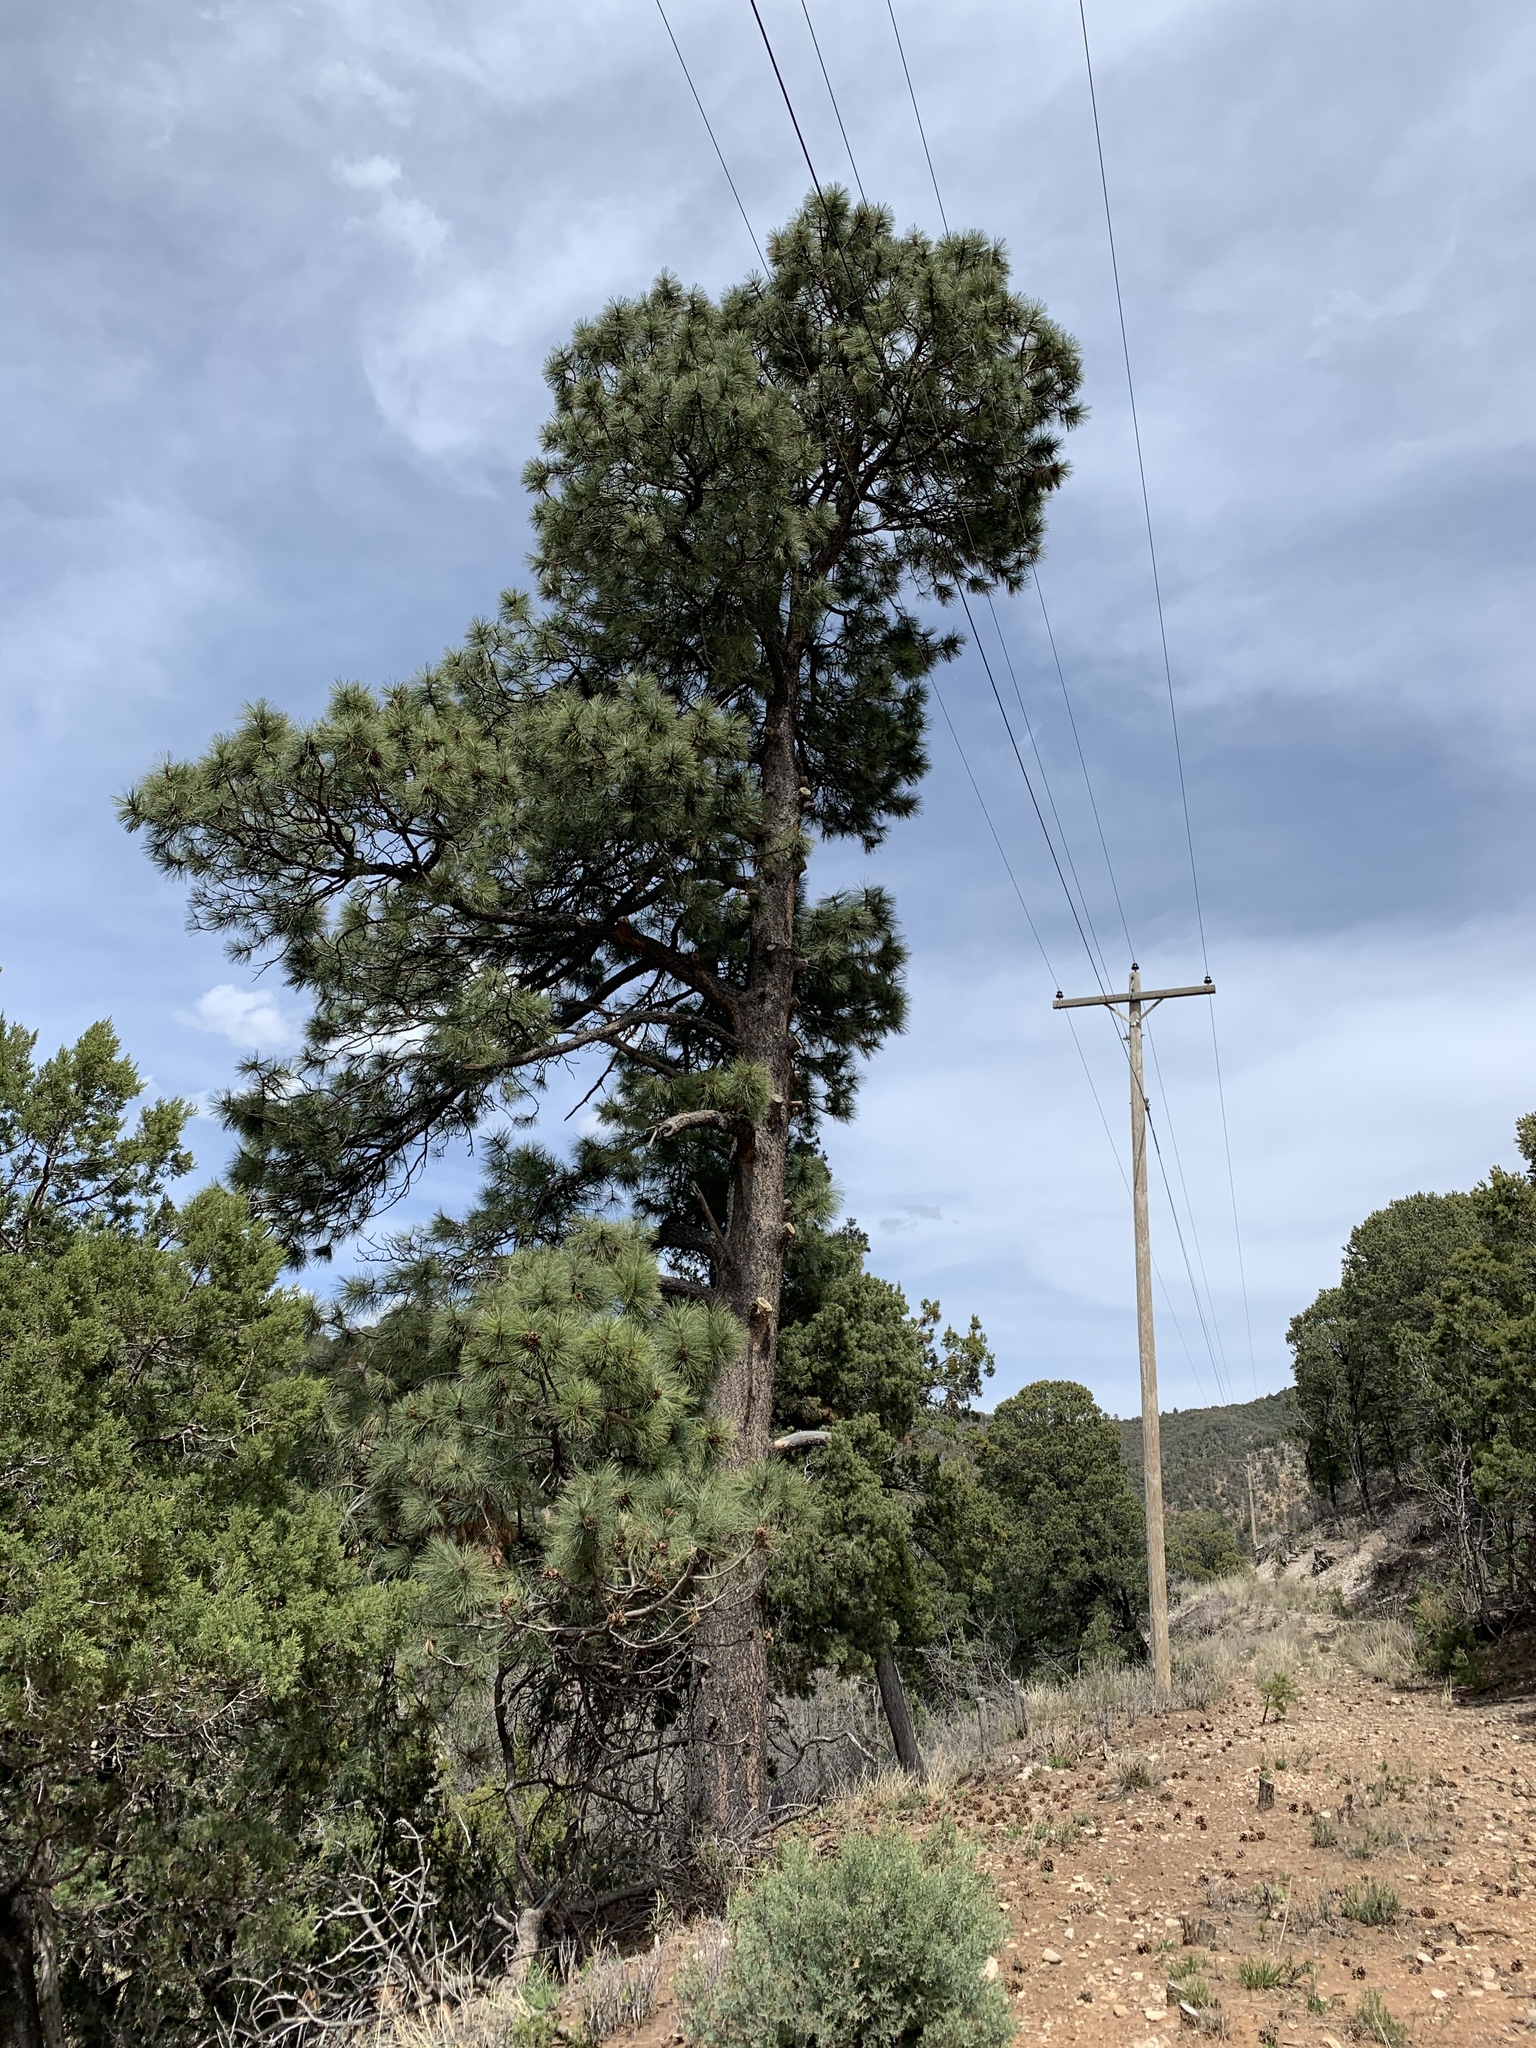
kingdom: Plantae
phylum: Tracheophyta
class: Pinopsida
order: Pinales
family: Pinaceae
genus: Pinus
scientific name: Pinus ponderosa
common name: Western yellow-pine
